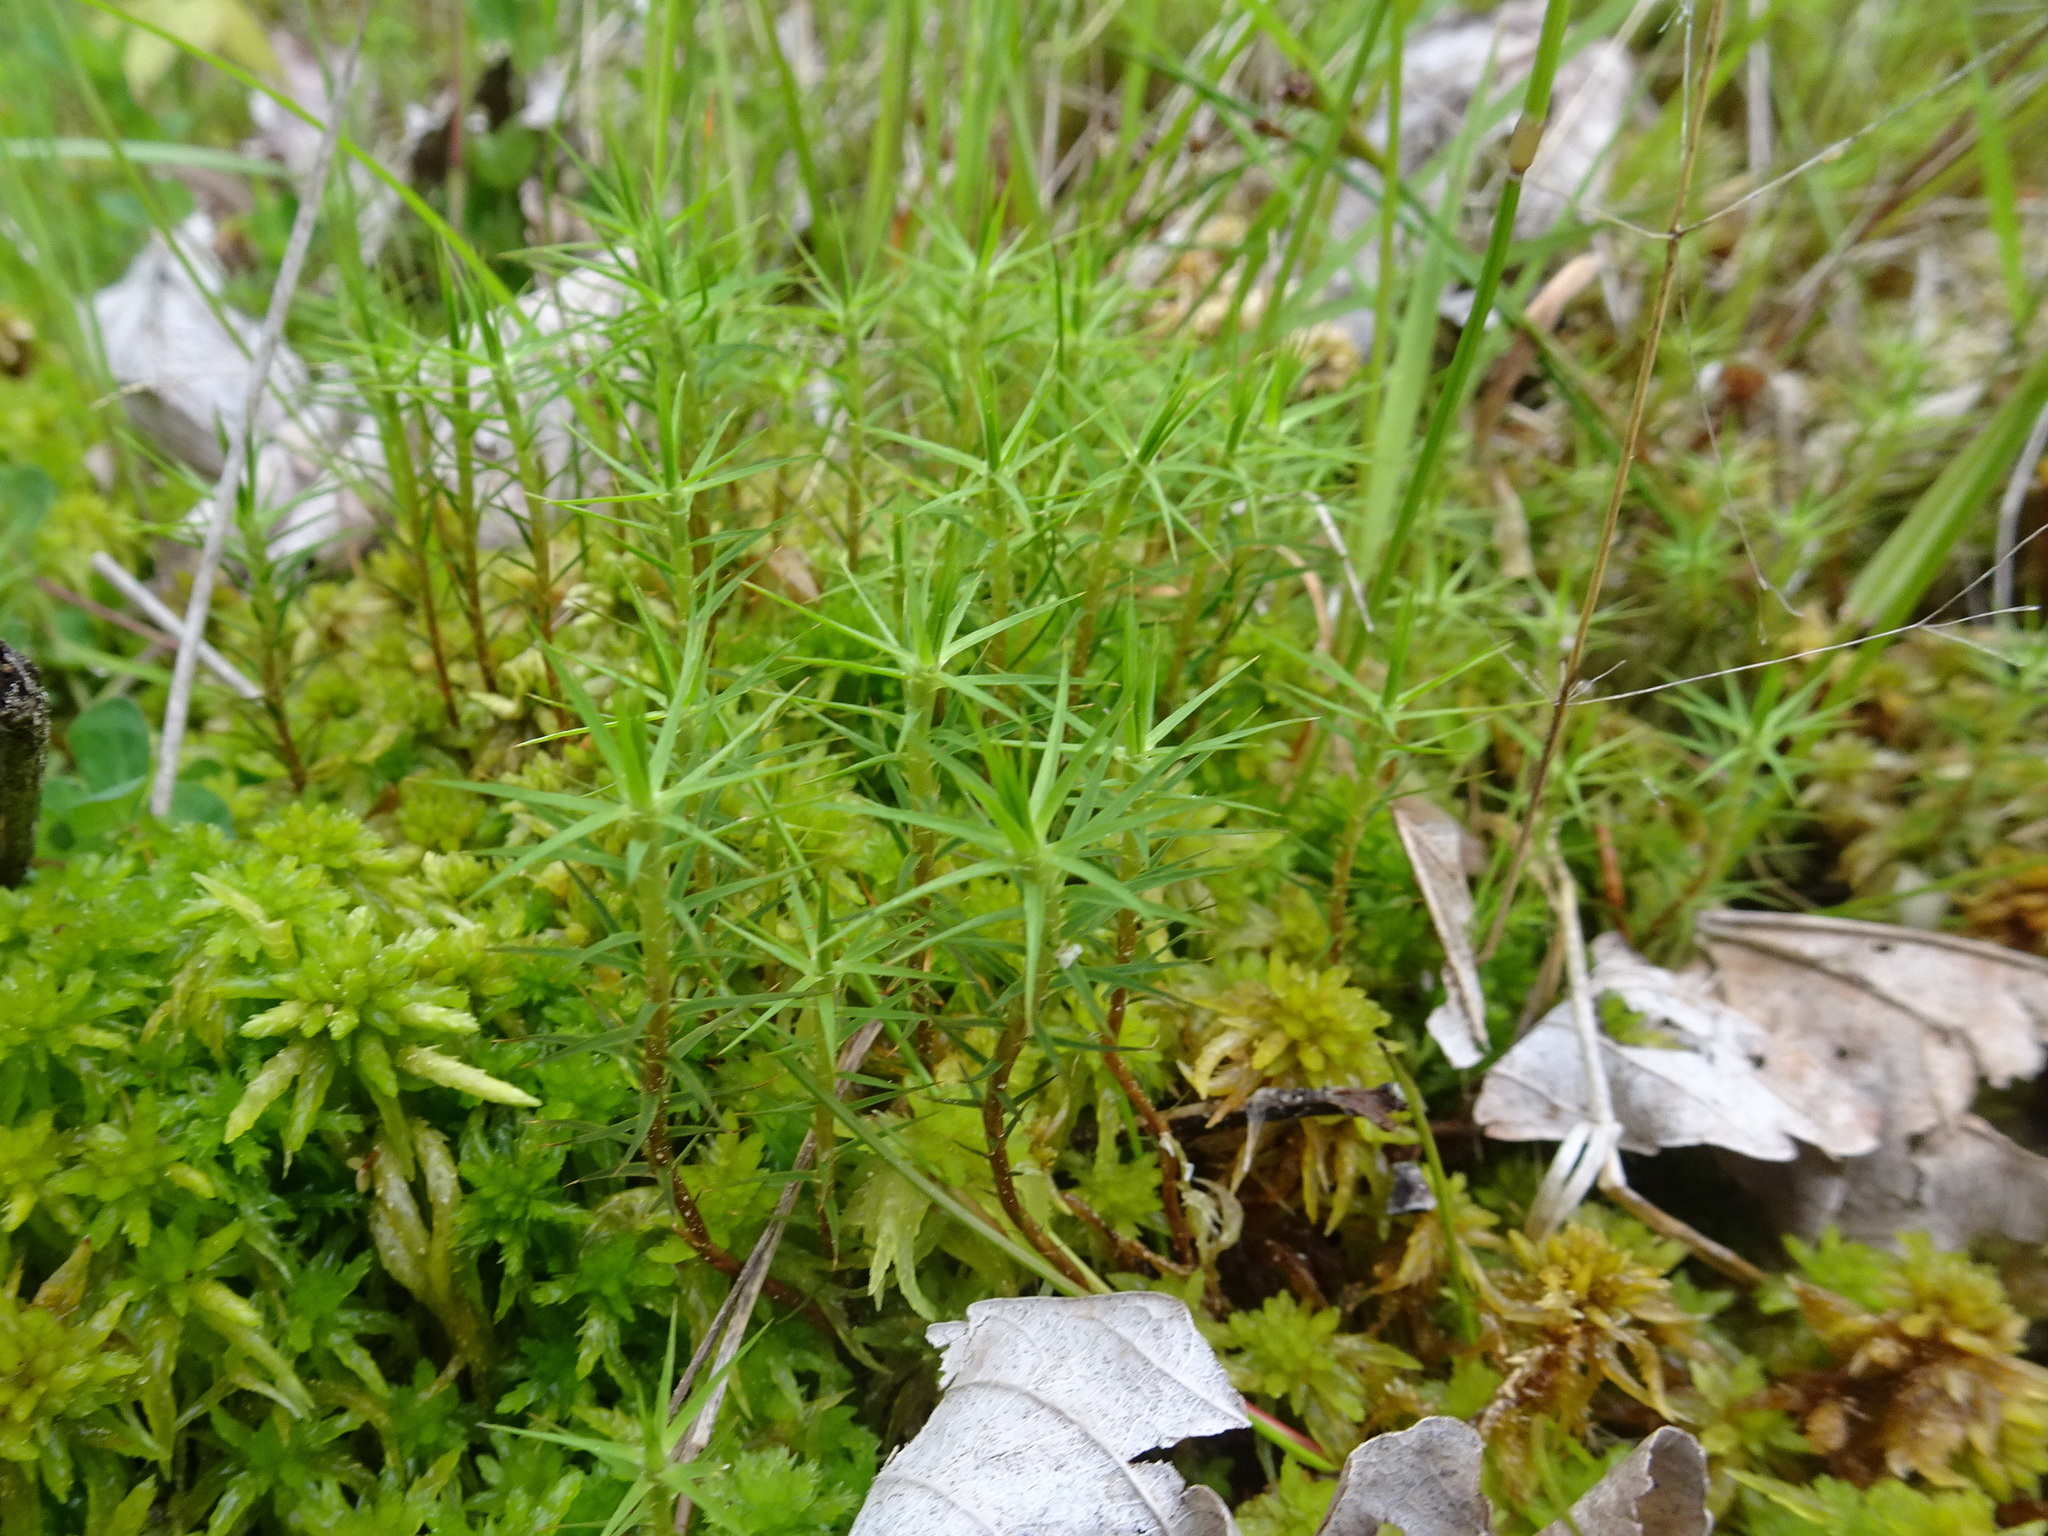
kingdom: Plantae
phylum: Bryophyta
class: Polytrichopsida
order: Polytrichales
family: Polytrichaceae
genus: Polytrichum
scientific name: Polytrichum commune
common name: Common haircap
